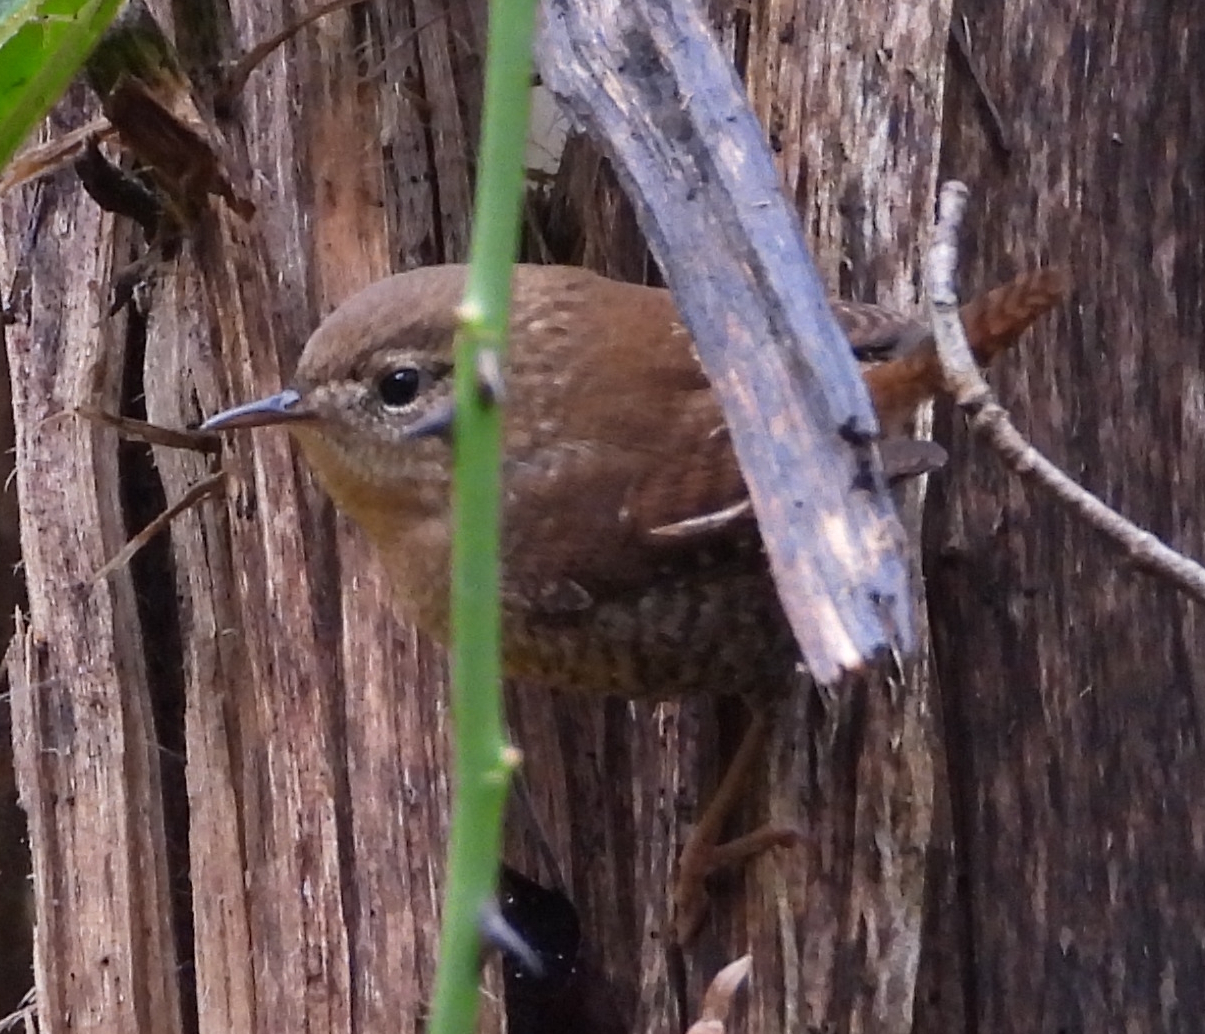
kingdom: Animalia
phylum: Chordata
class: Aves
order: Passeriformes
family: Troglodytidae
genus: Troglodytes
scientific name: Troglodytes hiemalis
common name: Winter wren
